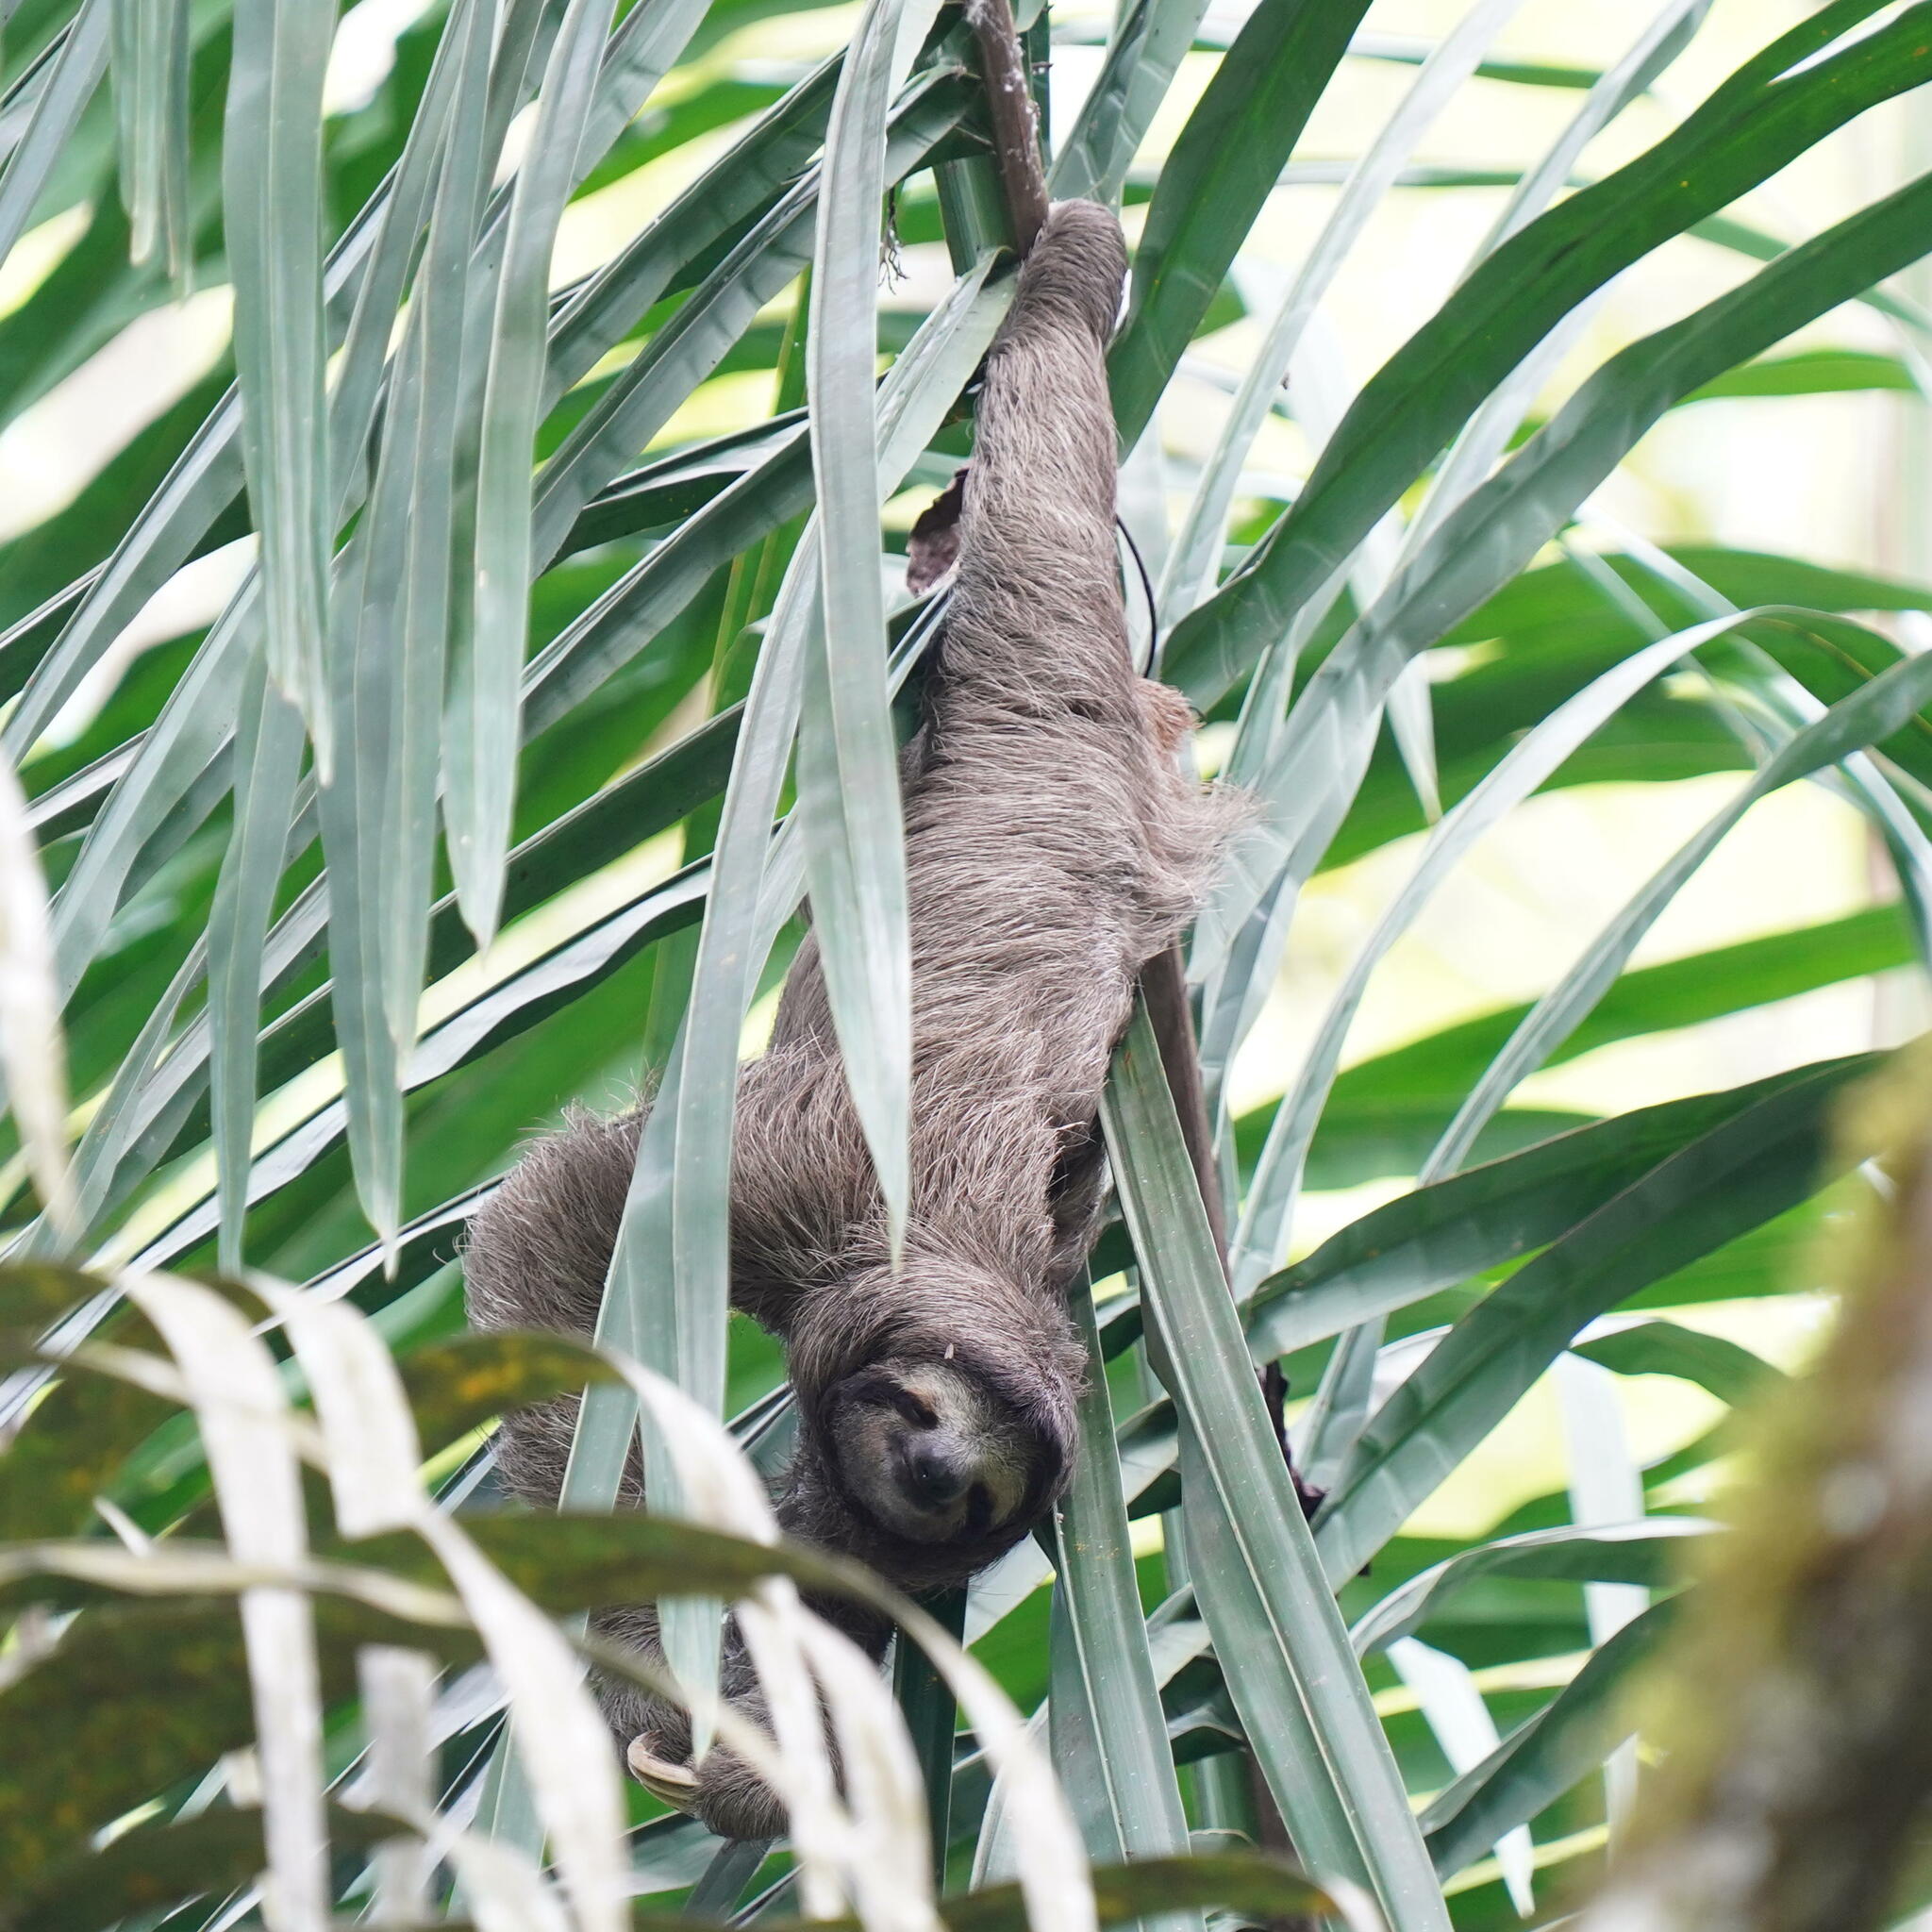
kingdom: Animalia
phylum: Chordata
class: Mammalia
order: Pilosa
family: Bradypodidae
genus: Bradypus
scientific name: Bradypus variegatus
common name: Brown-throated three-toed sloth
